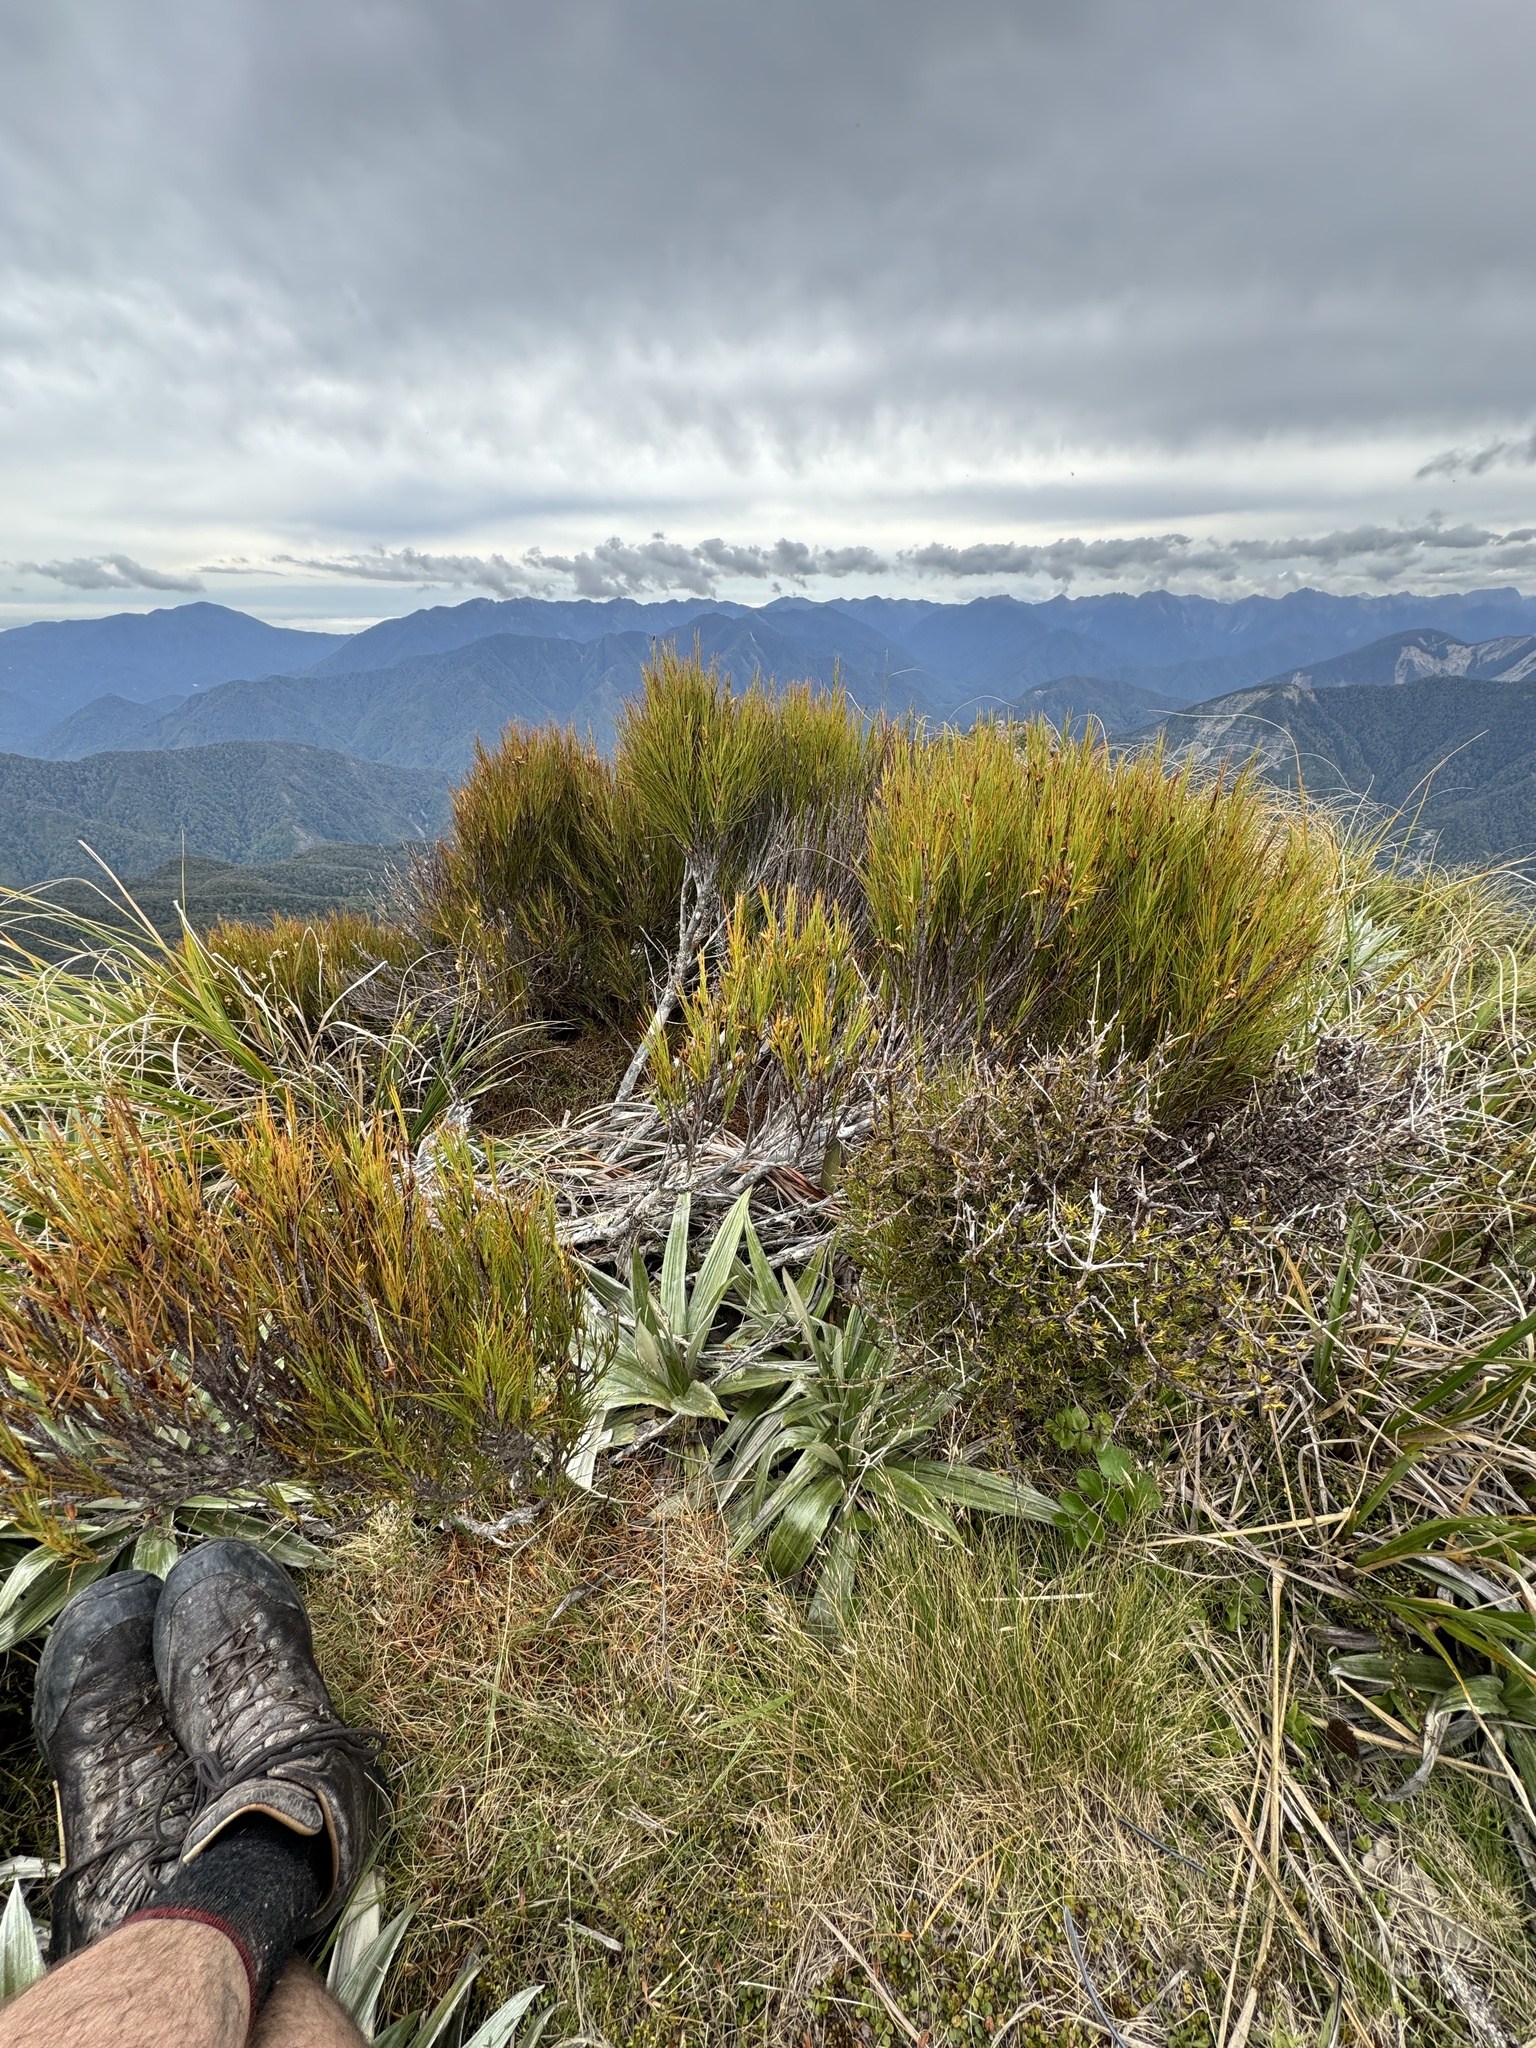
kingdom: Plantae
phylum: Tracheophyta
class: Magnoliopsida
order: Ericales
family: Ericaceae
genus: Dracophyllum
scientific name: Dracophyllum longifolium
